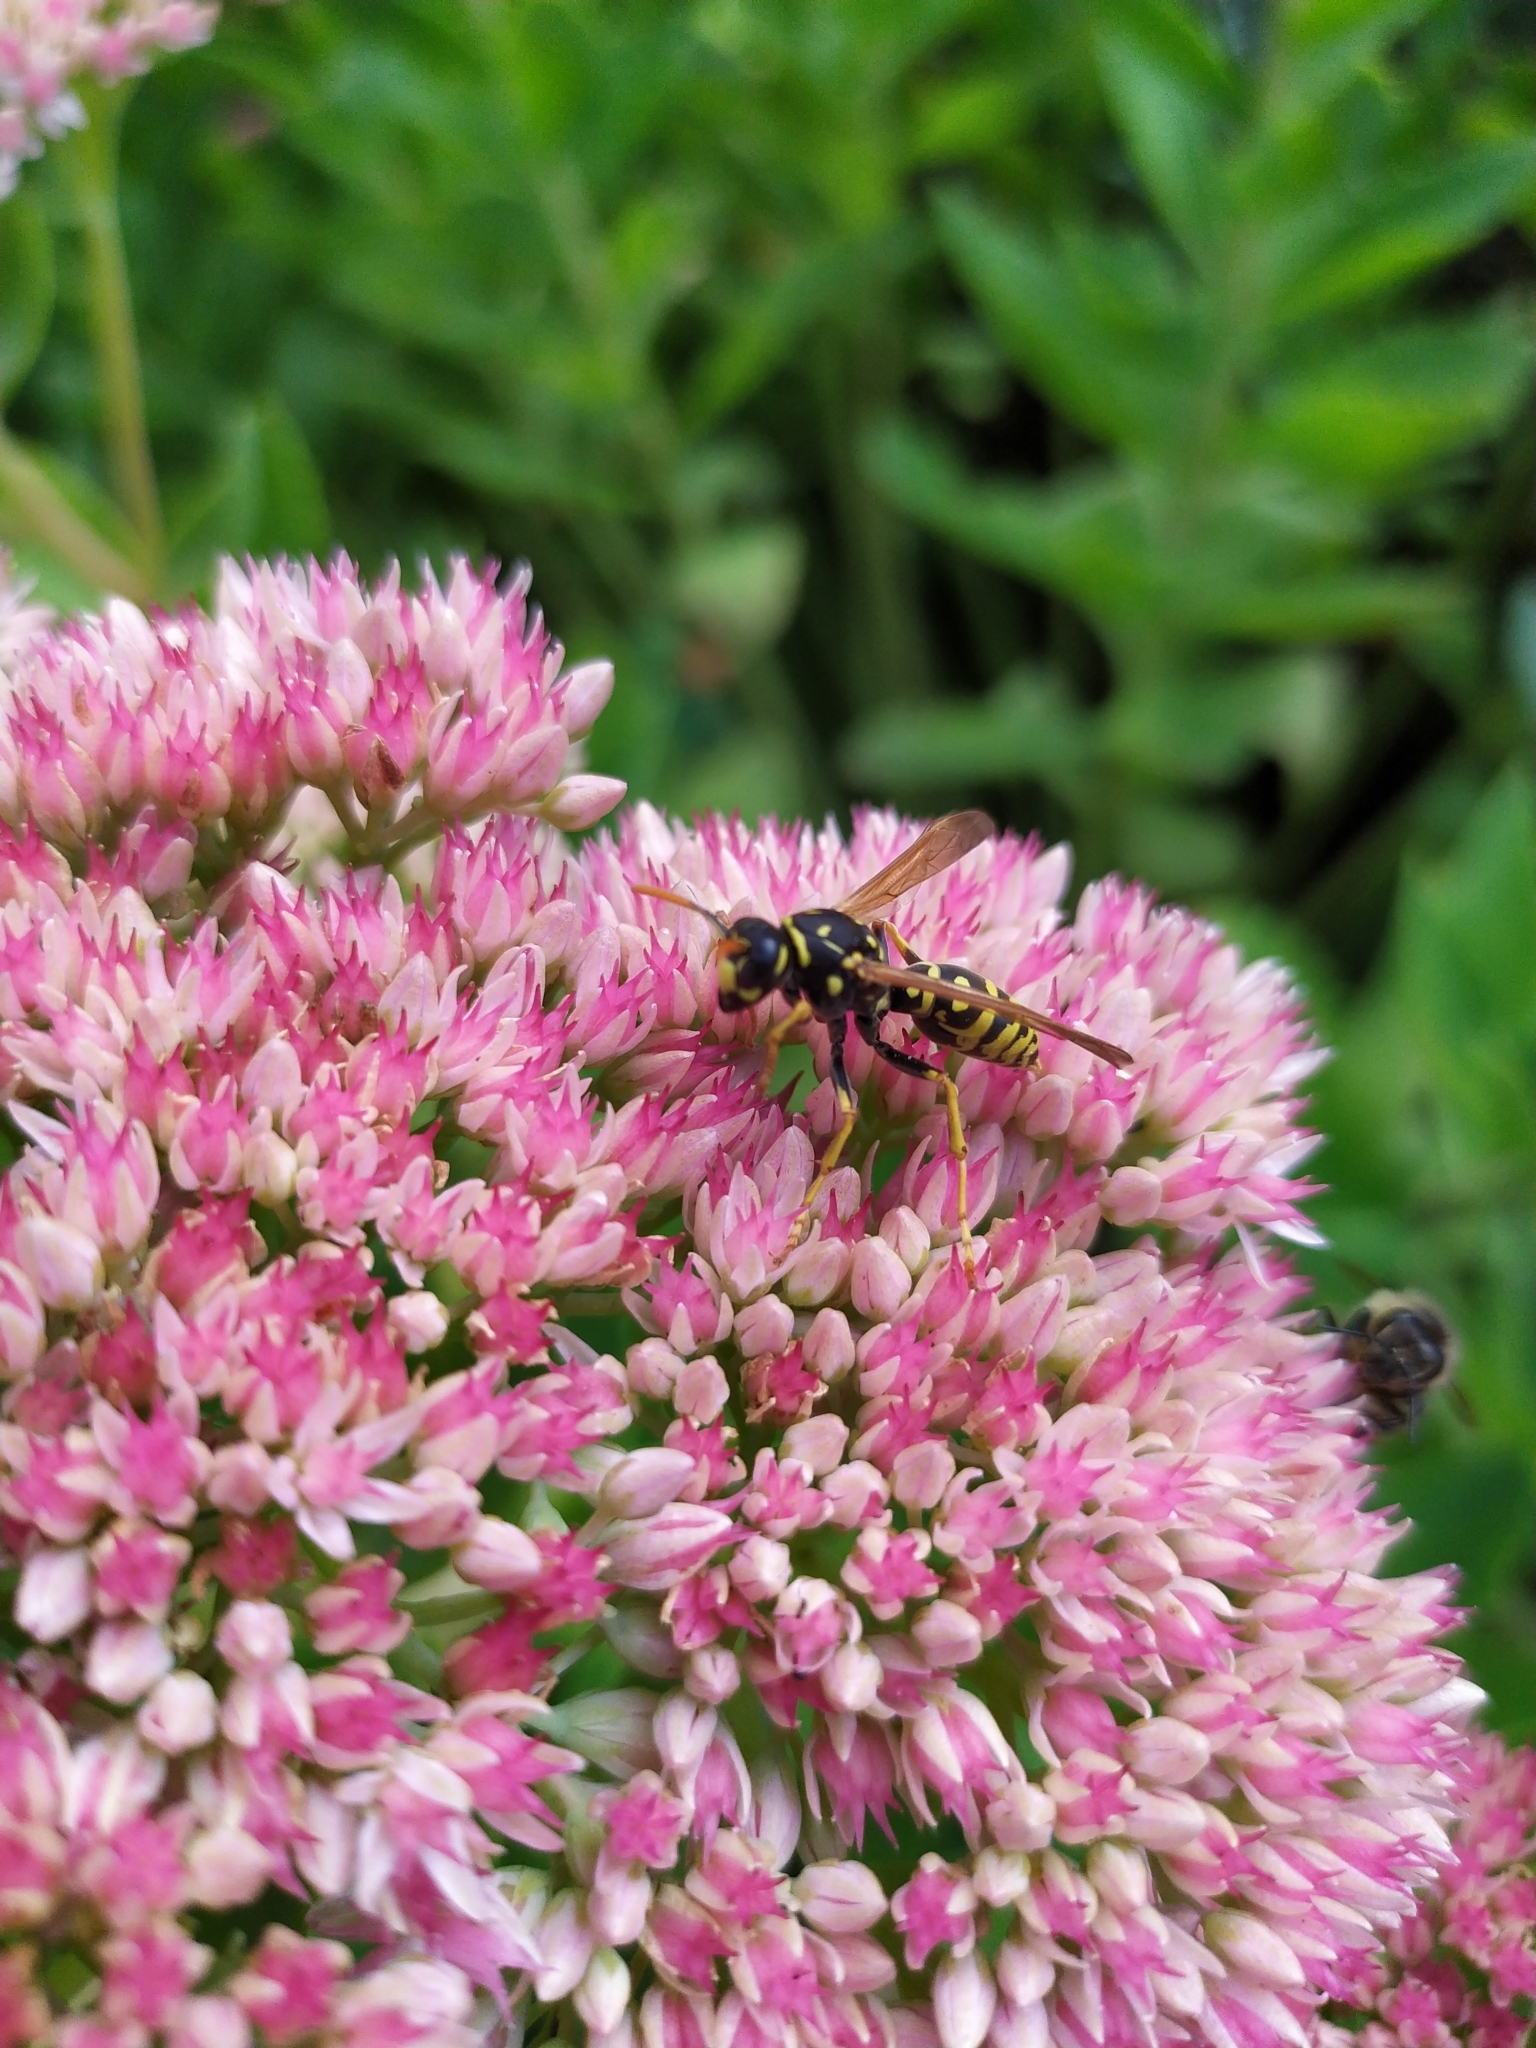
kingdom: Animalia
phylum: Arthropoda
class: Insecta
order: Hymenoptera
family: Eumenidae
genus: Polistes
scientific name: Polistes dominula
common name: Paper wasp
